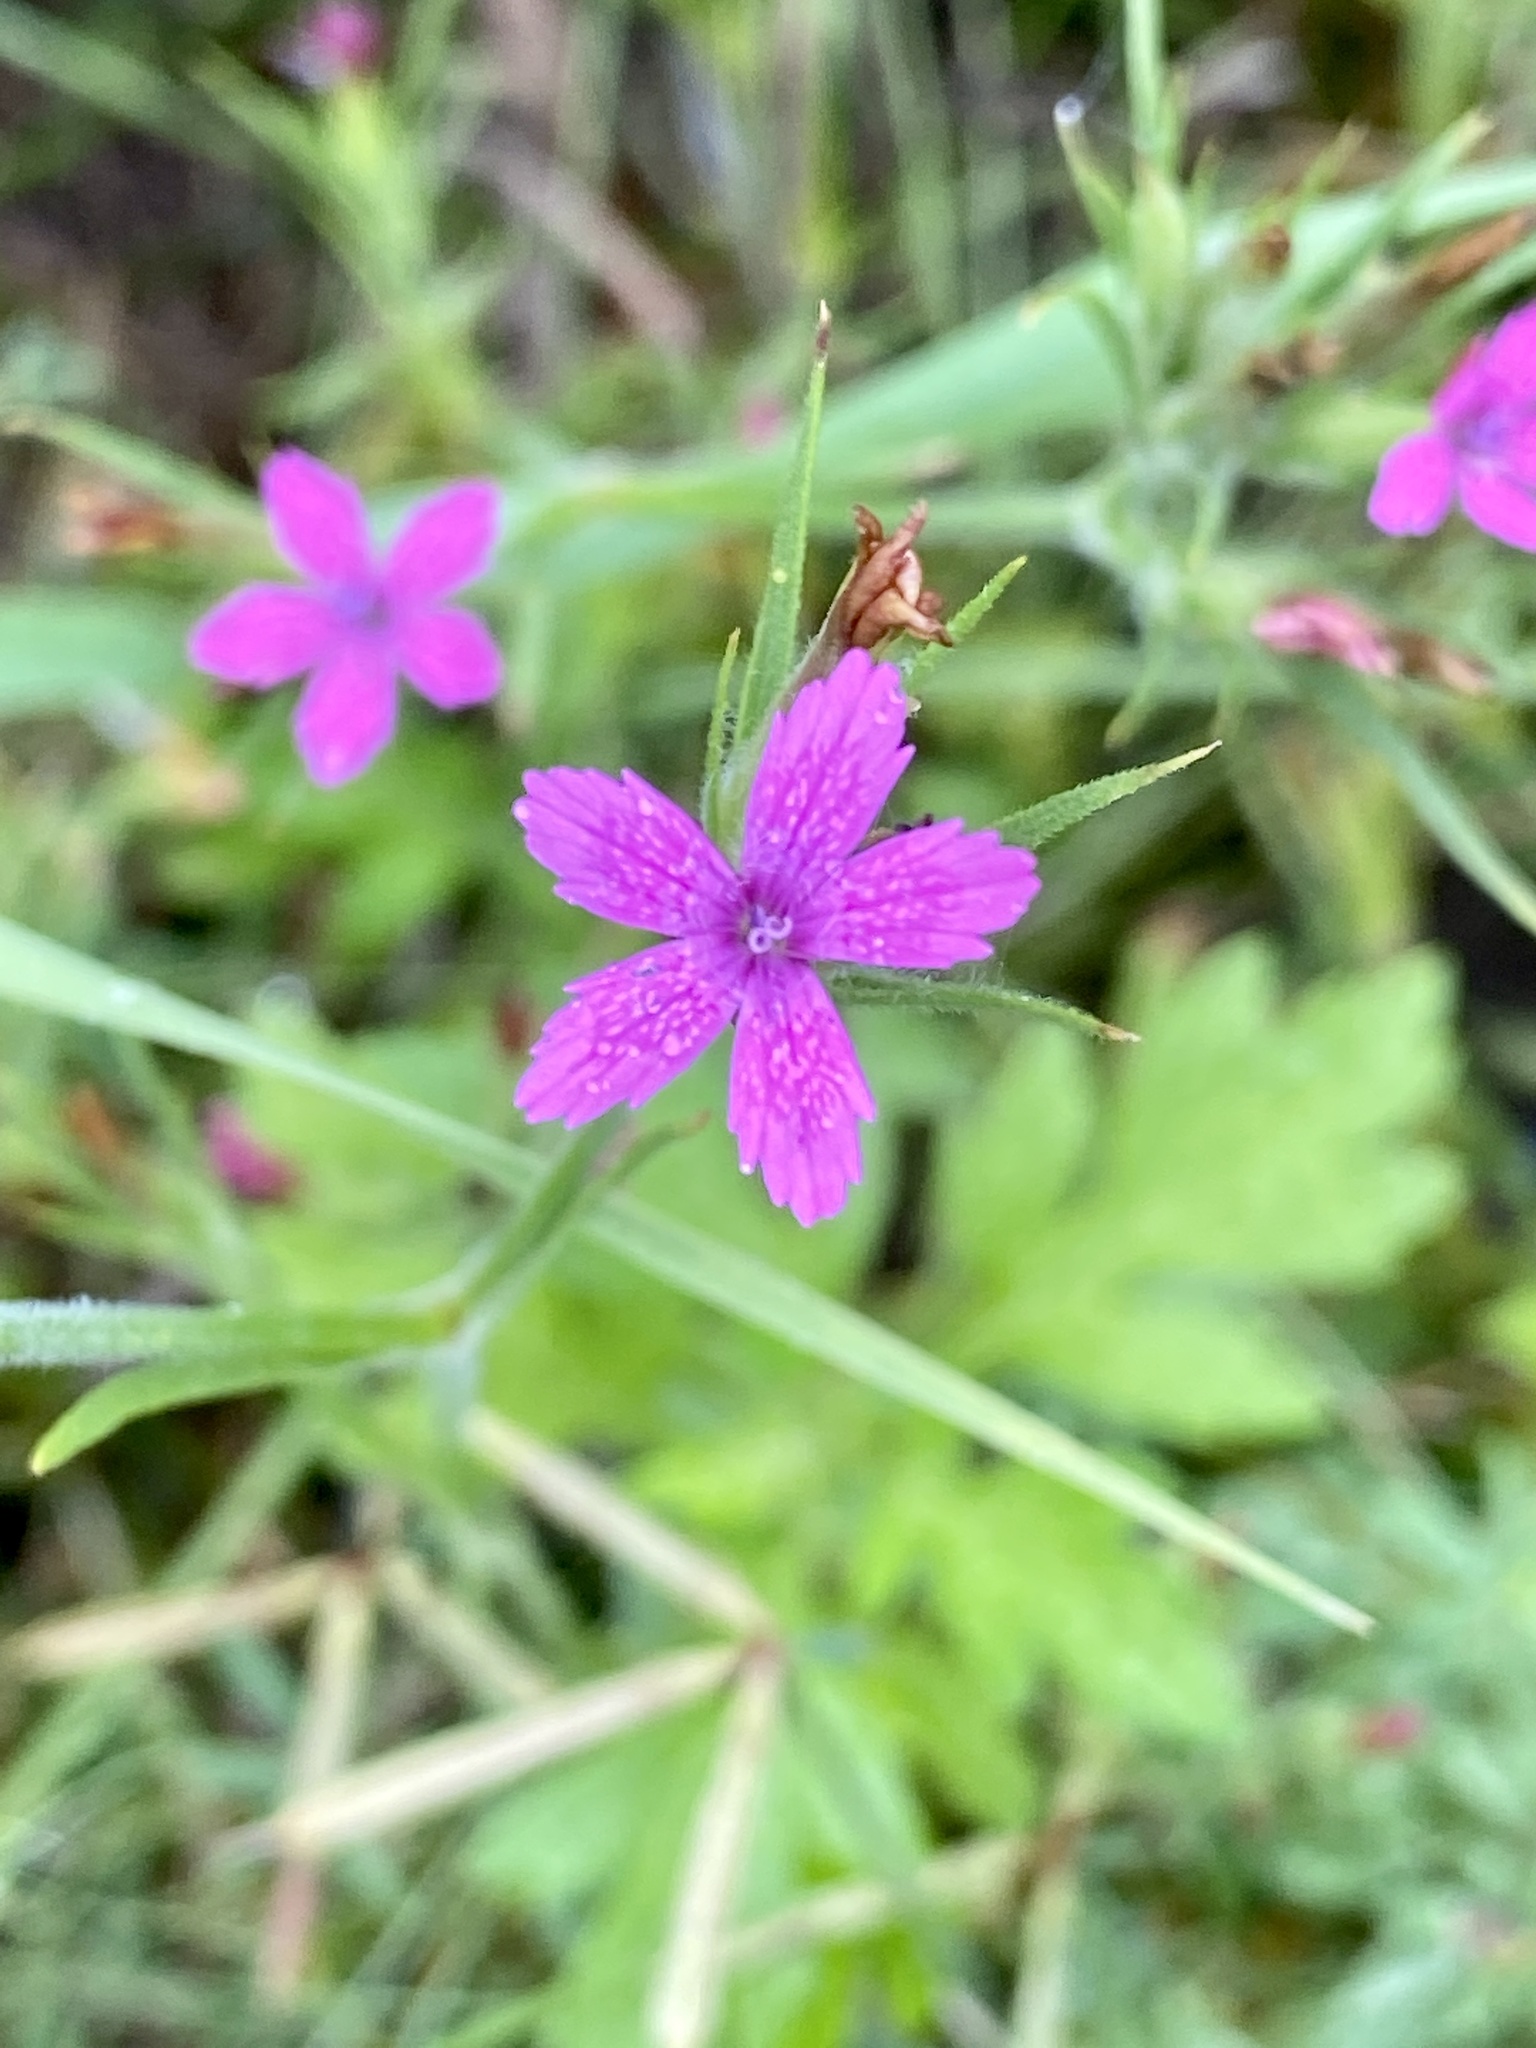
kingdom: Plantae
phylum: Tracheophyta
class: Magnoliopsida
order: Caryophyllales
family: Caryophyllaceae
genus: Dianthus
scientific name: Dianthus armeria
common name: Deptford pink
